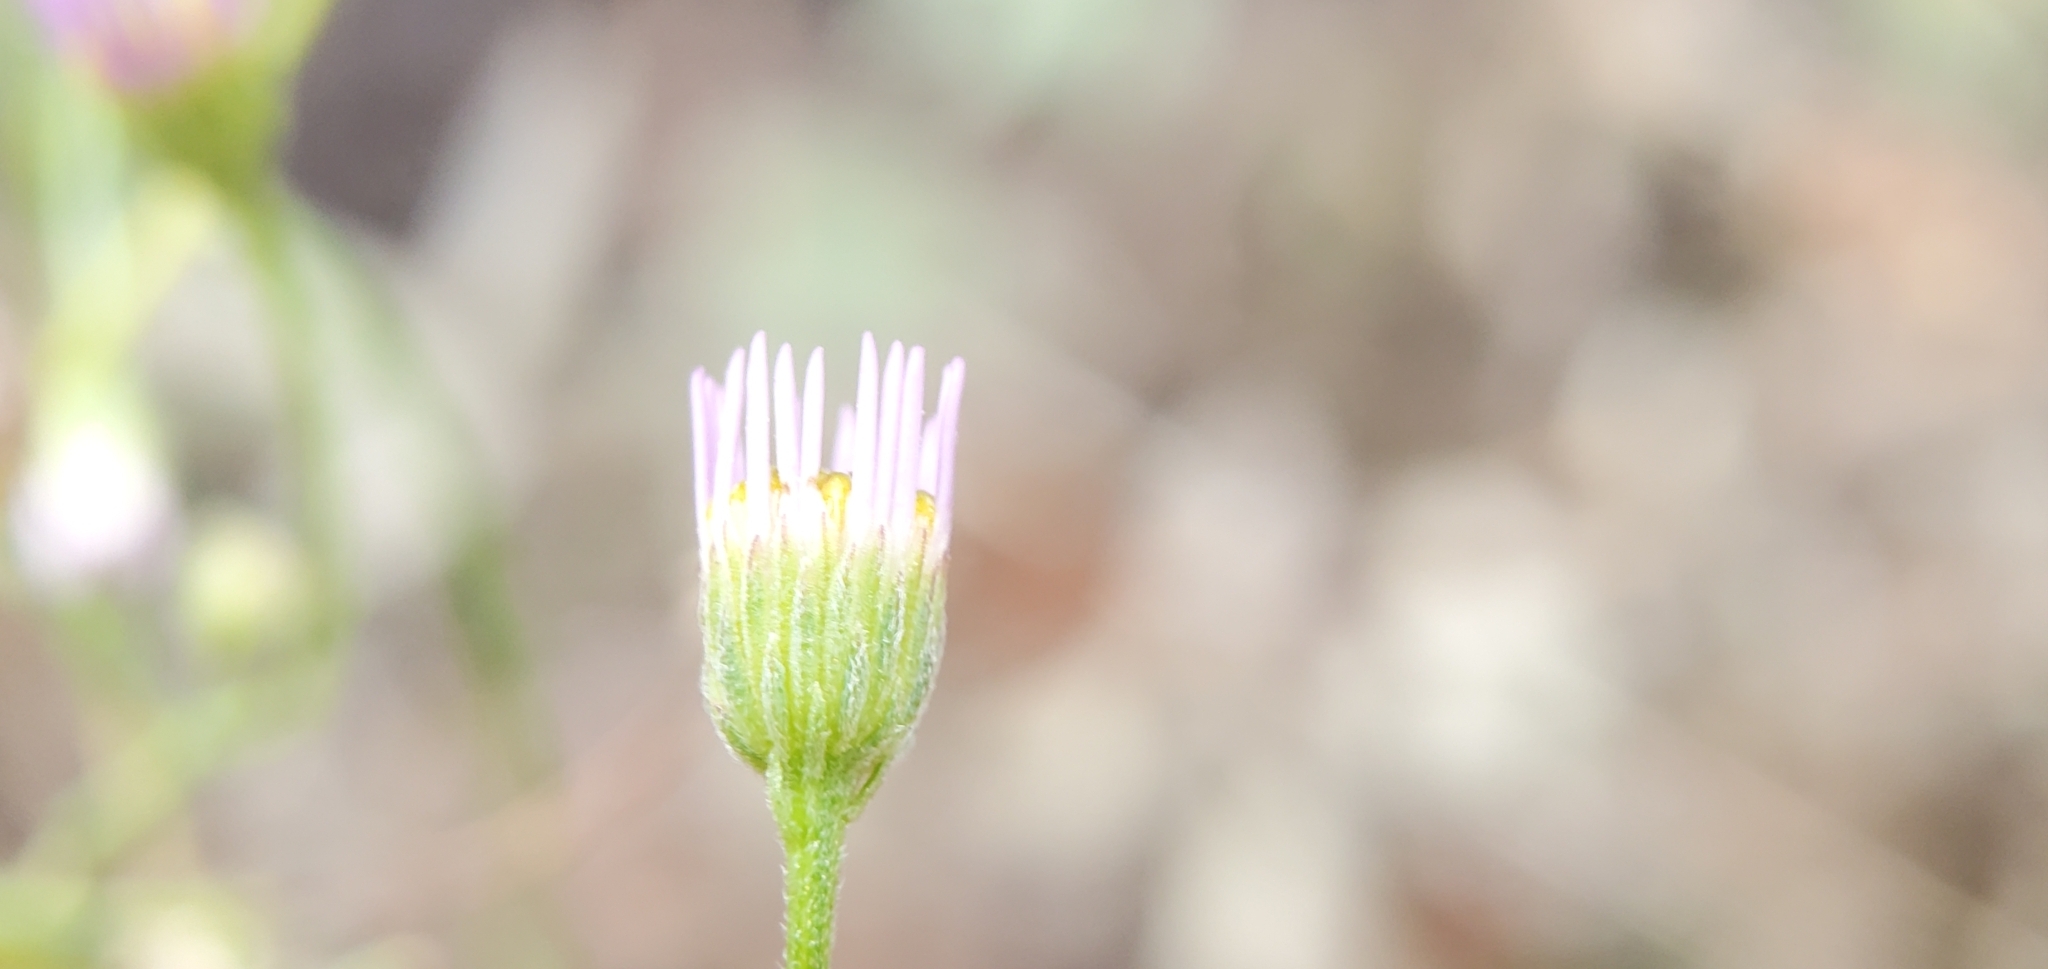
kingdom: Plantae
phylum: Tracheophyta
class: Magnoliopsida
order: Asterales
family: Asteraceae
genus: Erigeron
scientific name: Erigeron foliosus
